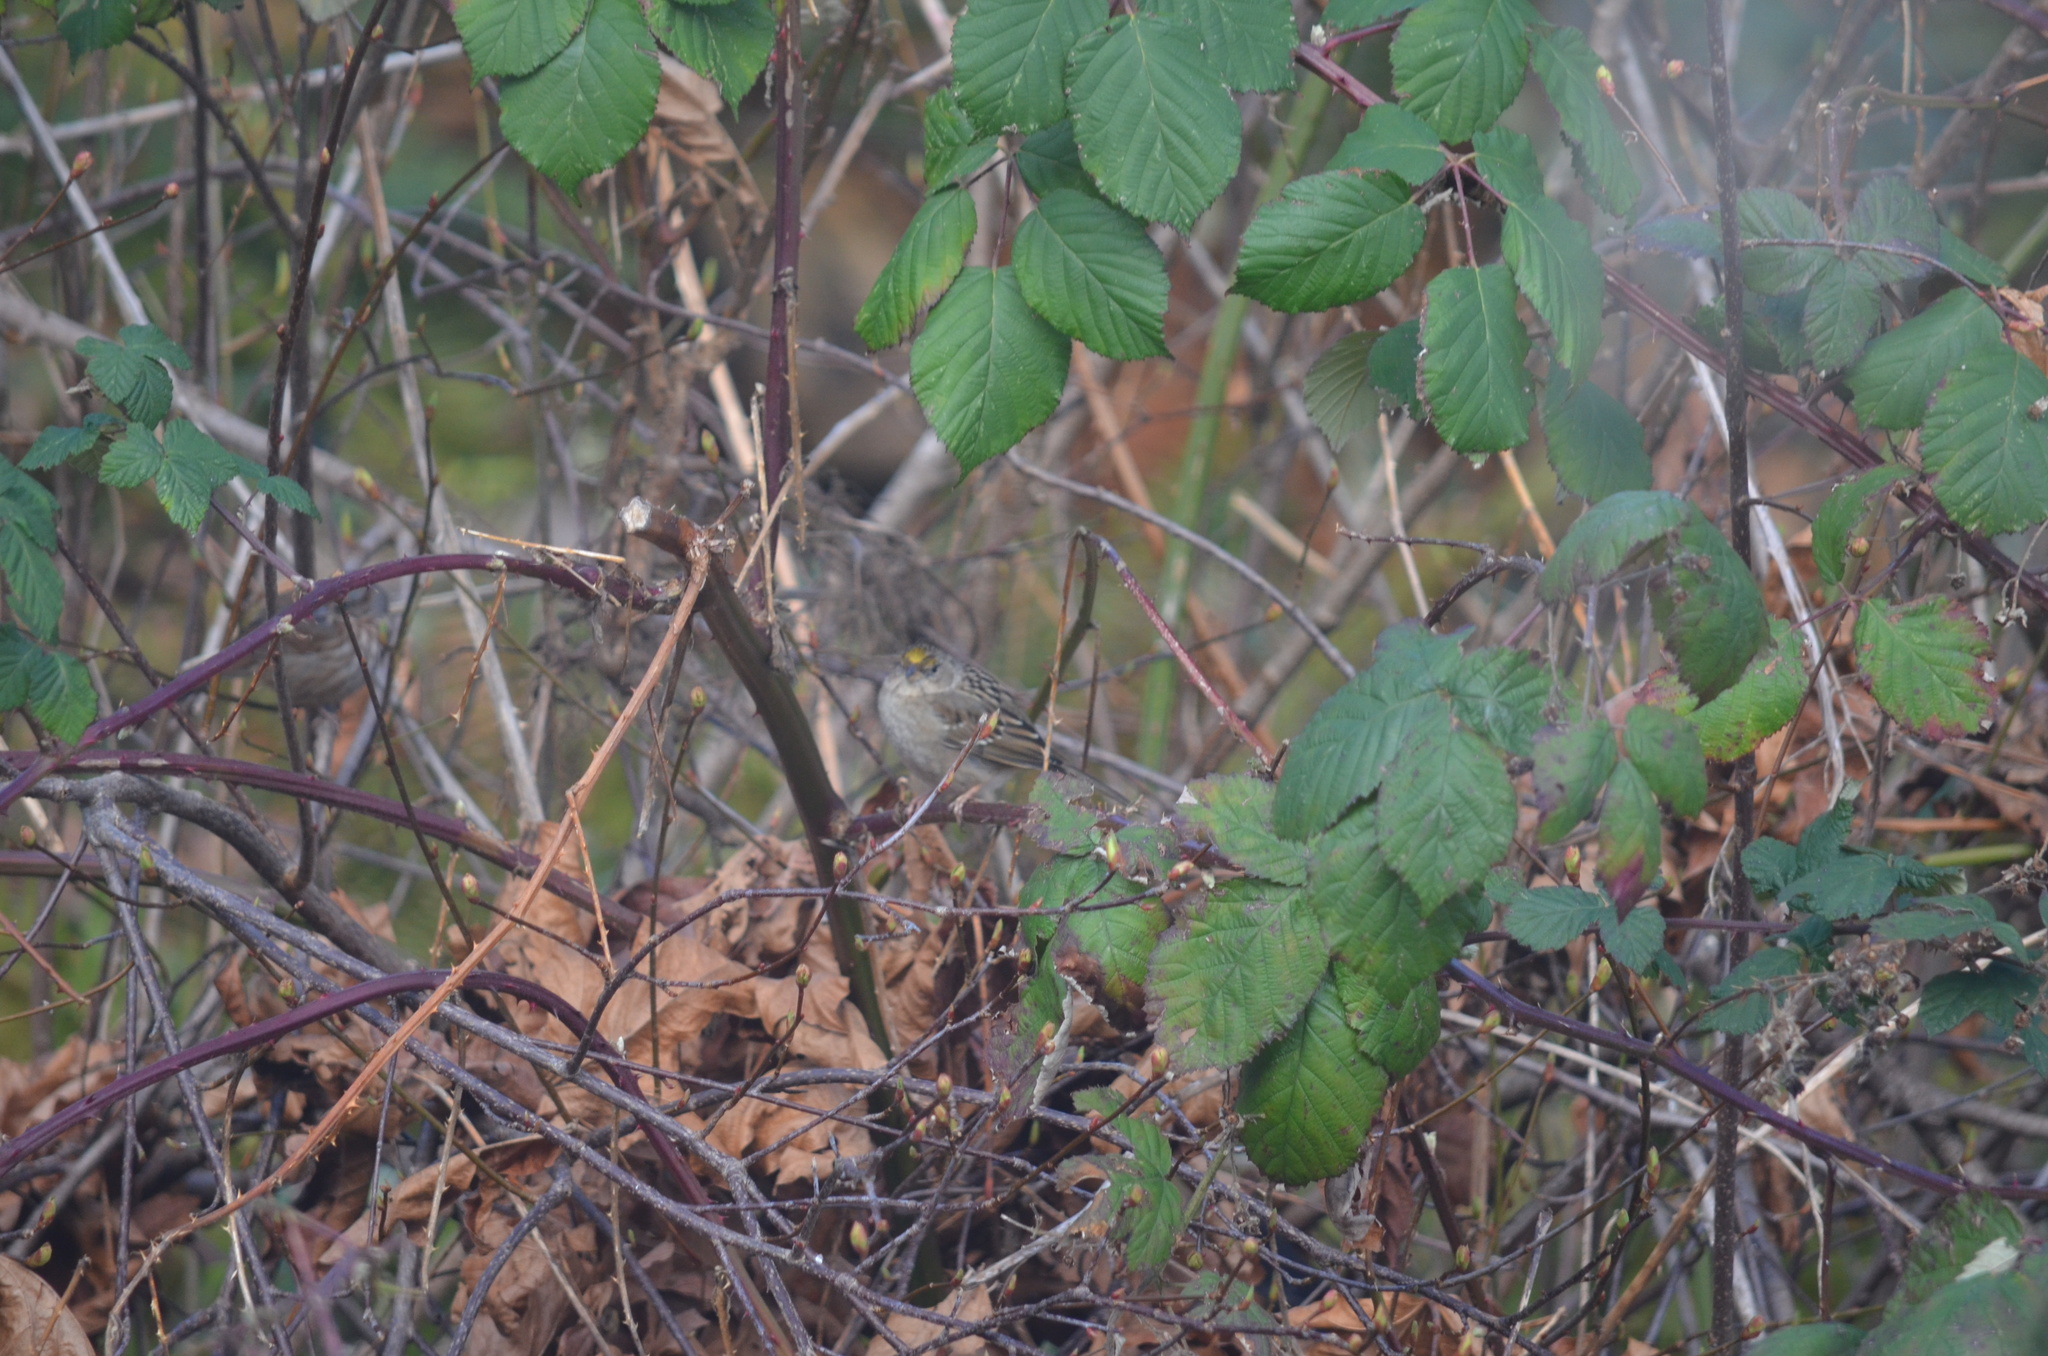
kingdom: Animalia
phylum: Chordata
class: Aves
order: Passeriformes
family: Passerellidae
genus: Zonotrichia
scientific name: Zonotrichia atricapilla
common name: Golden-crowned sparrow
